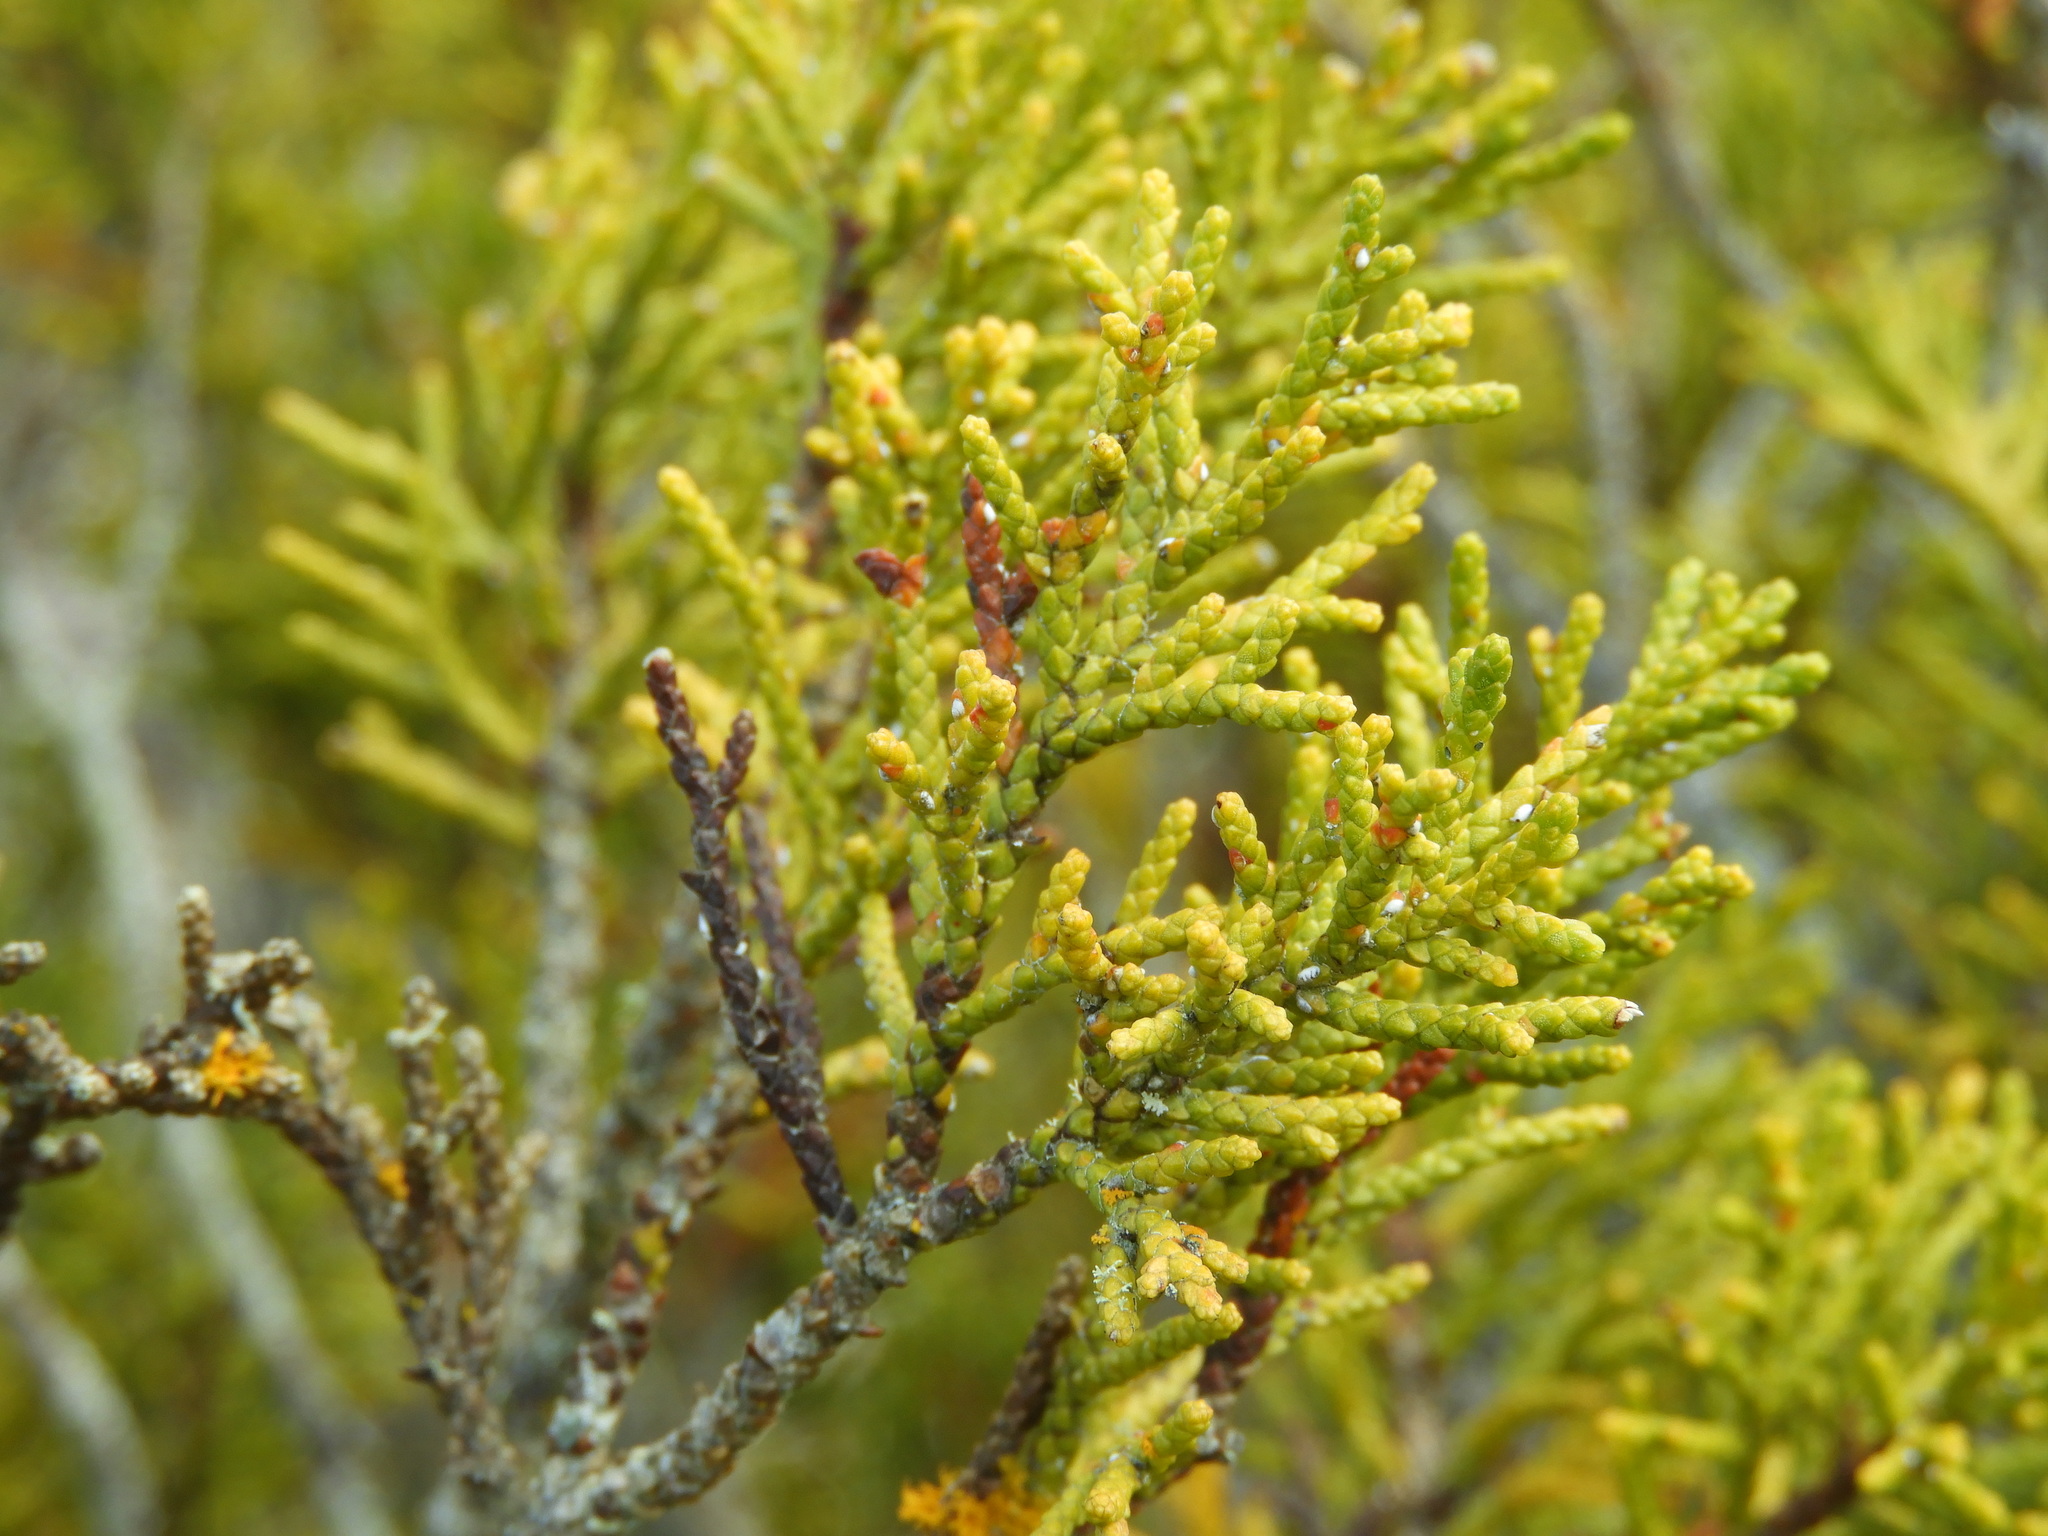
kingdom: Plantae
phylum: Tracheophyta
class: Pinopsida
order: Pinales
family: Podocarpaceae
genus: Halocarpus
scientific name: Halocarpus bidwillii
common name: Bog pine
